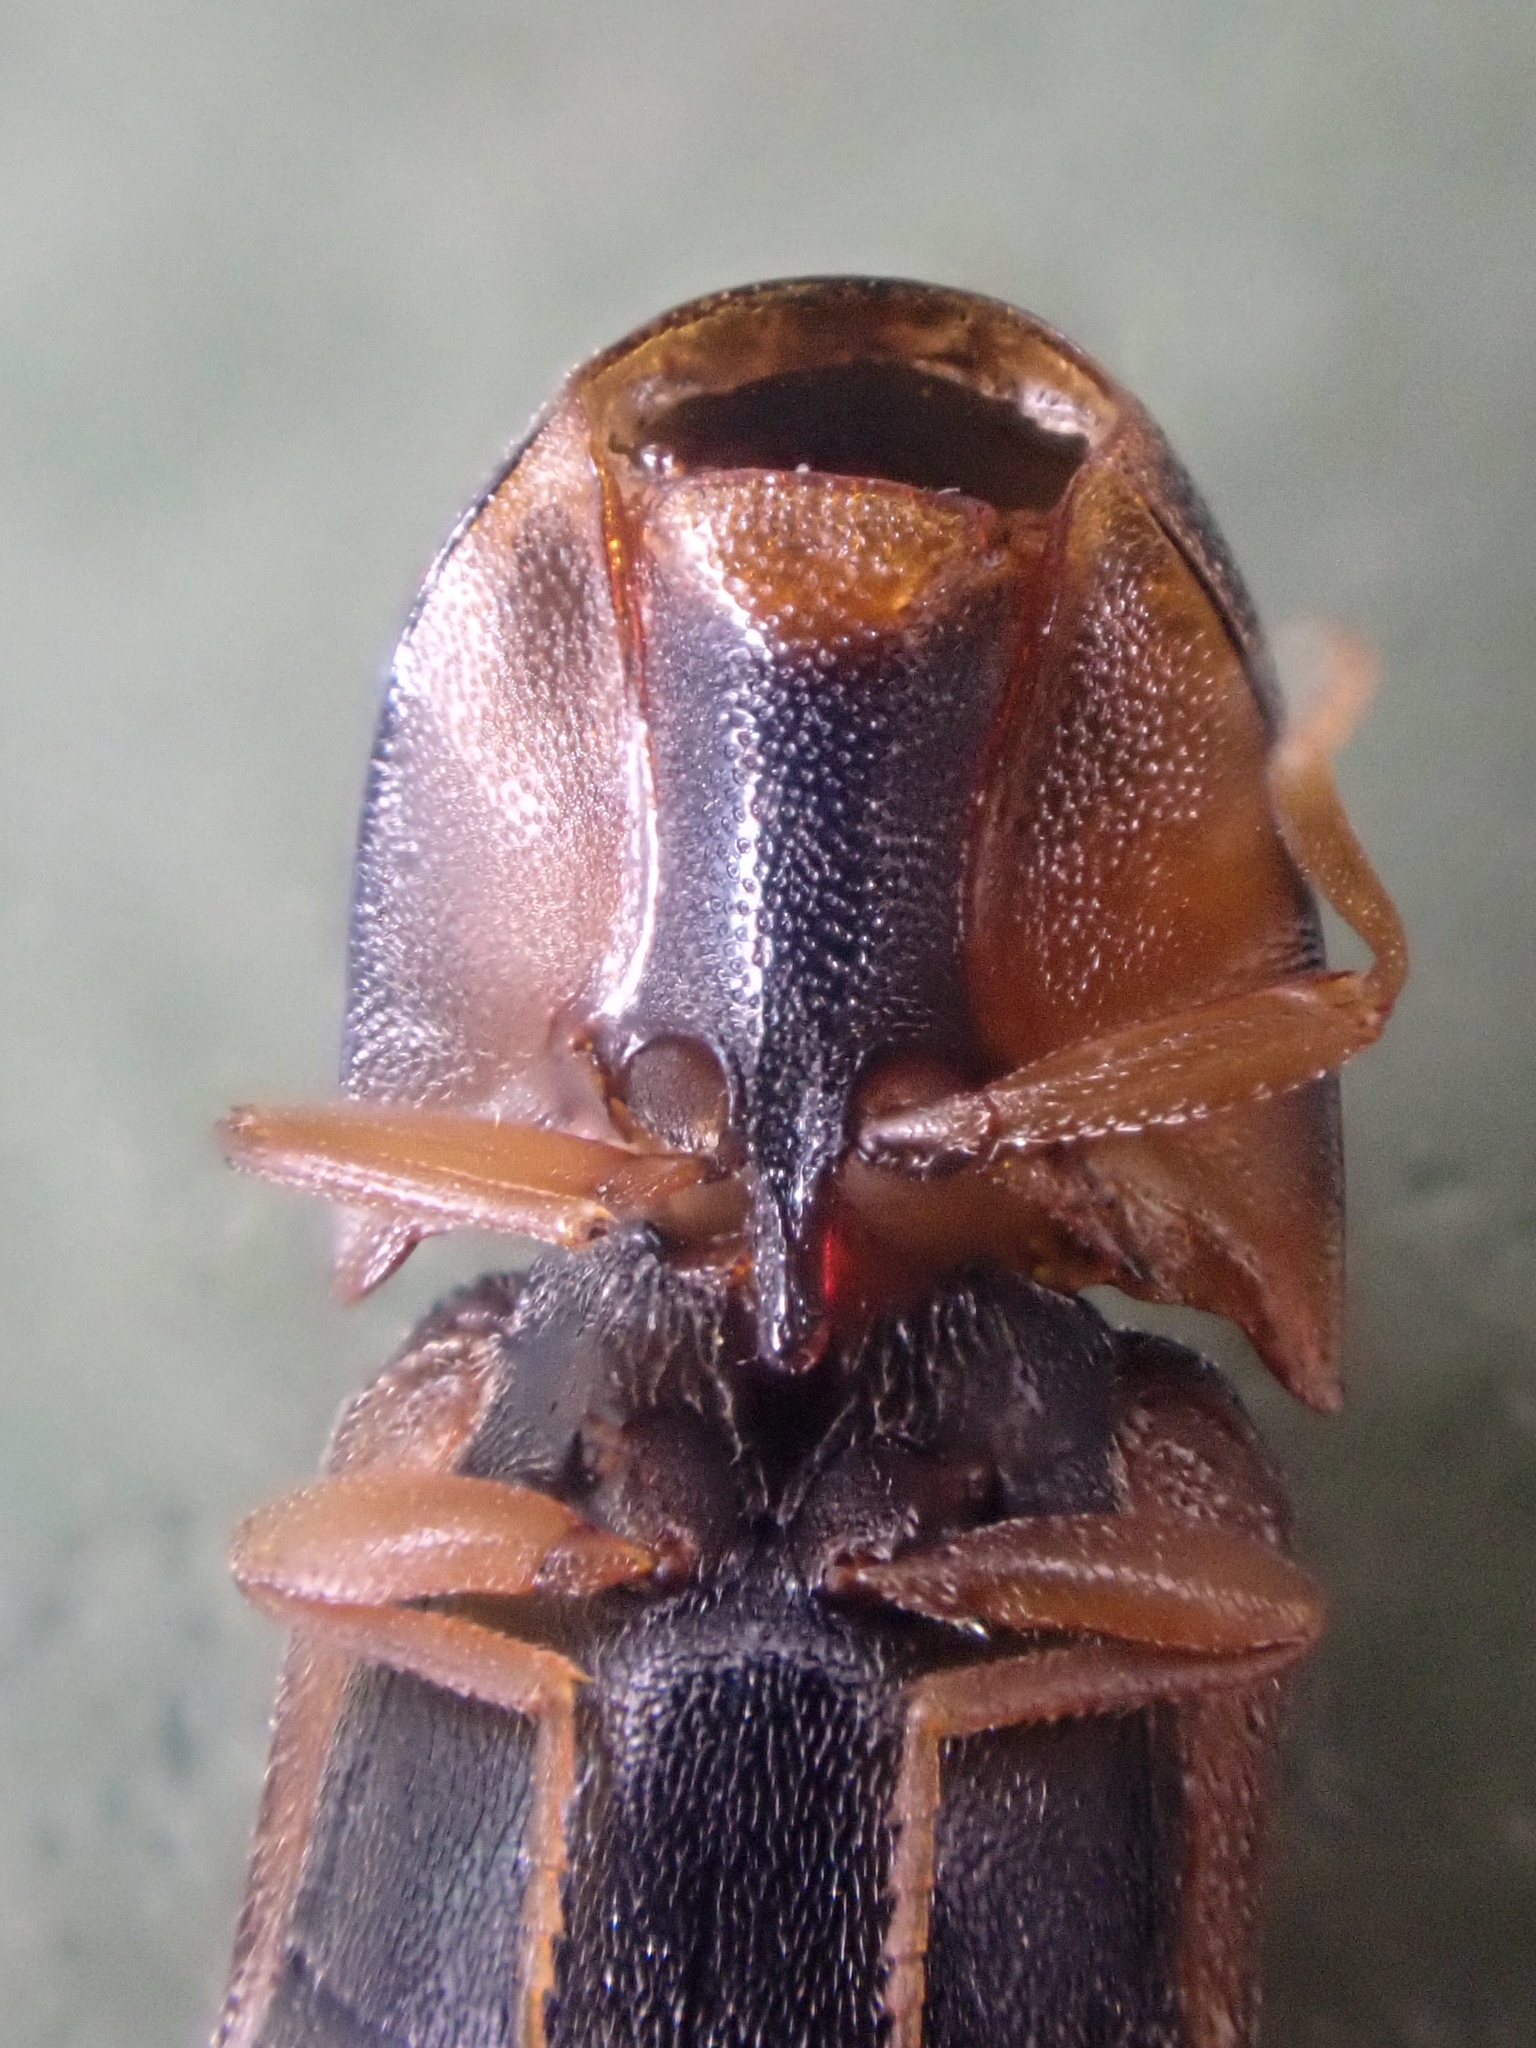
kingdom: Animalia
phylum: Arthropoda
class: Insecta
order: Coleoptera
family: Elateridae
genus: Sericus
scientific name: Sericus incongruus
